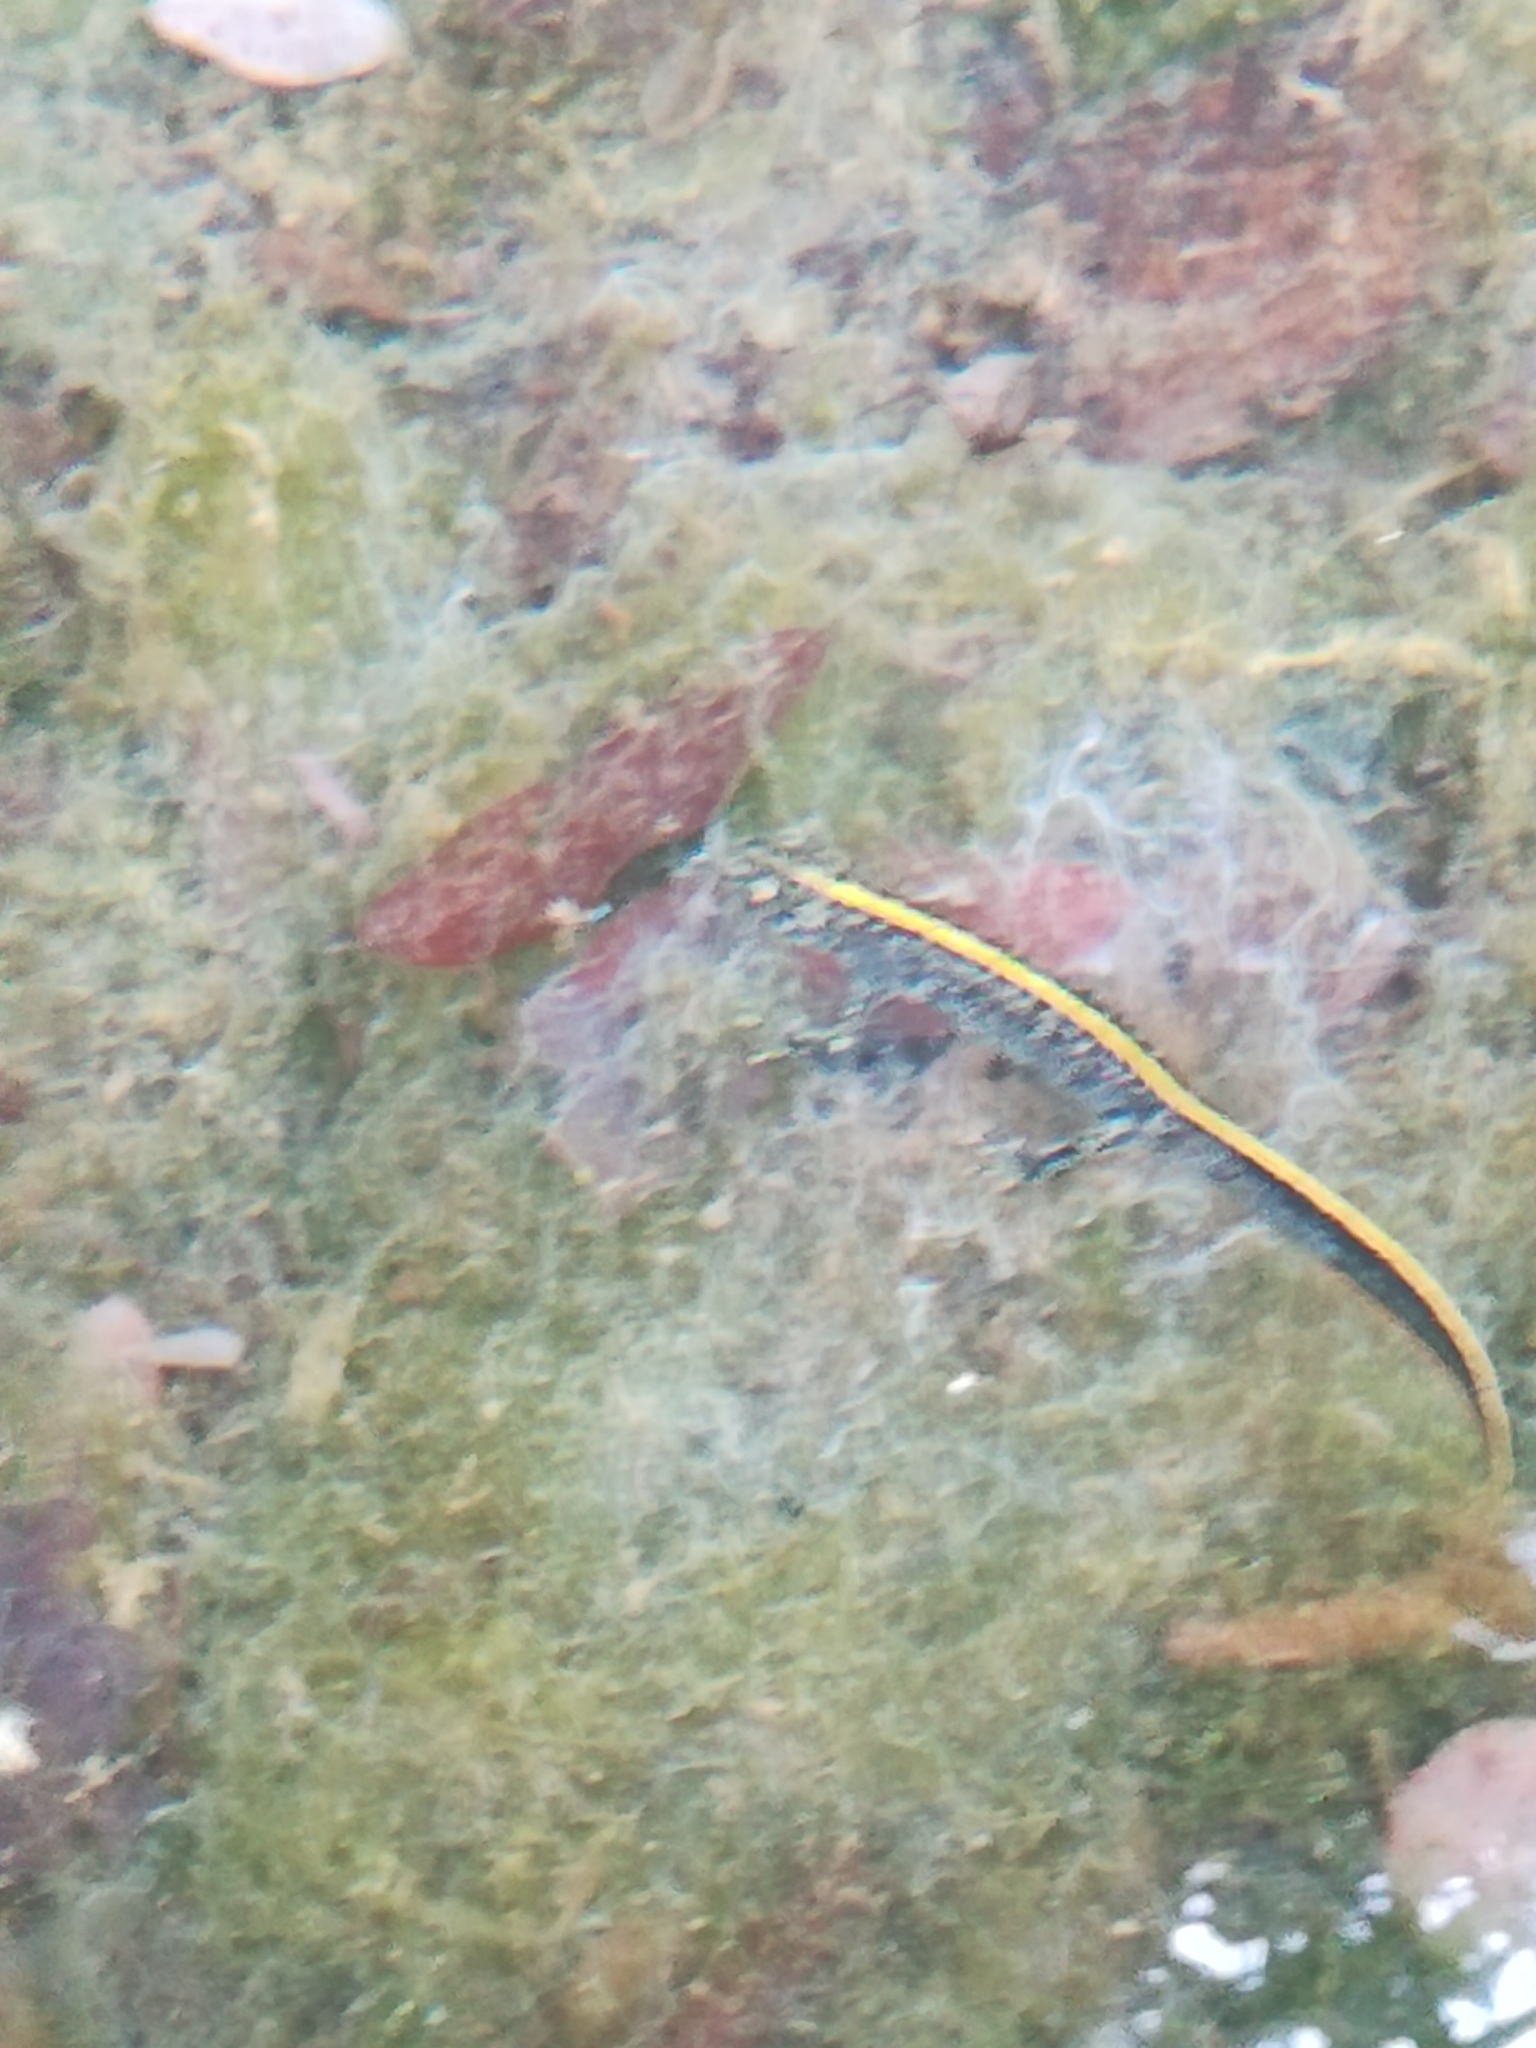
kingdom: Animalia
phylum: Chordata
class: Amphibia
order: Caudata
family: Salamandridae
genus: Triturus
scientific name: Triturus carnifex
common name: Italian crested newt
